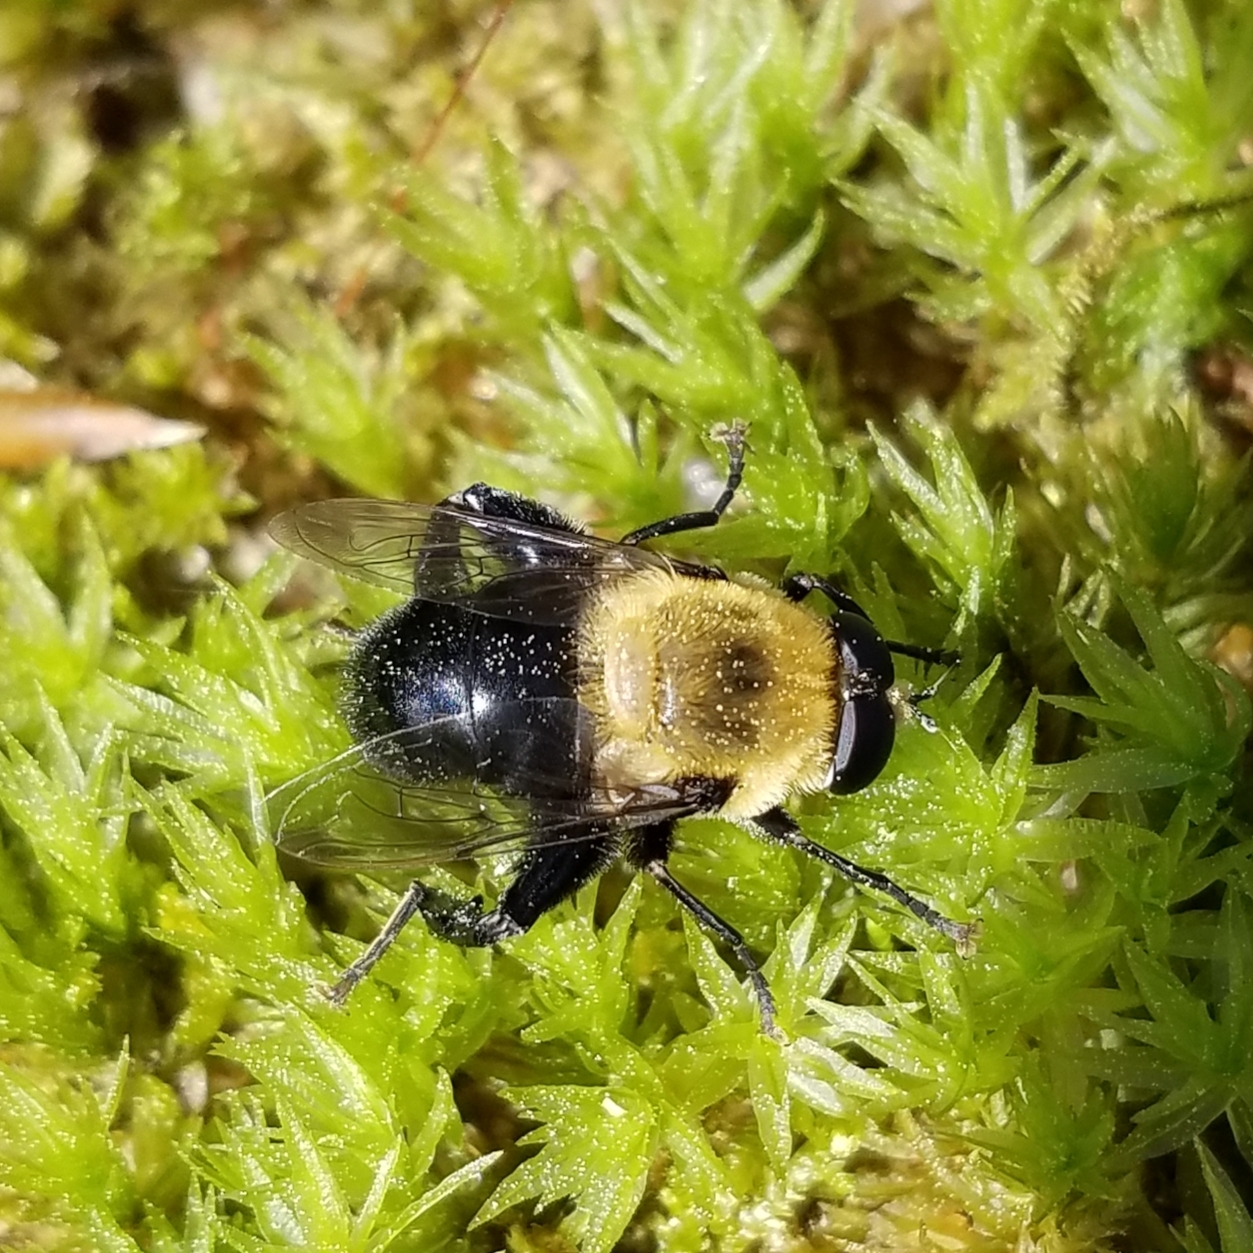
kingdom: Animalia
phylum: Arthropoda
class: Insecta
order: Diptera
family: Syrphidae
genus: Imatisma
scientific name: Imatisma bautias
